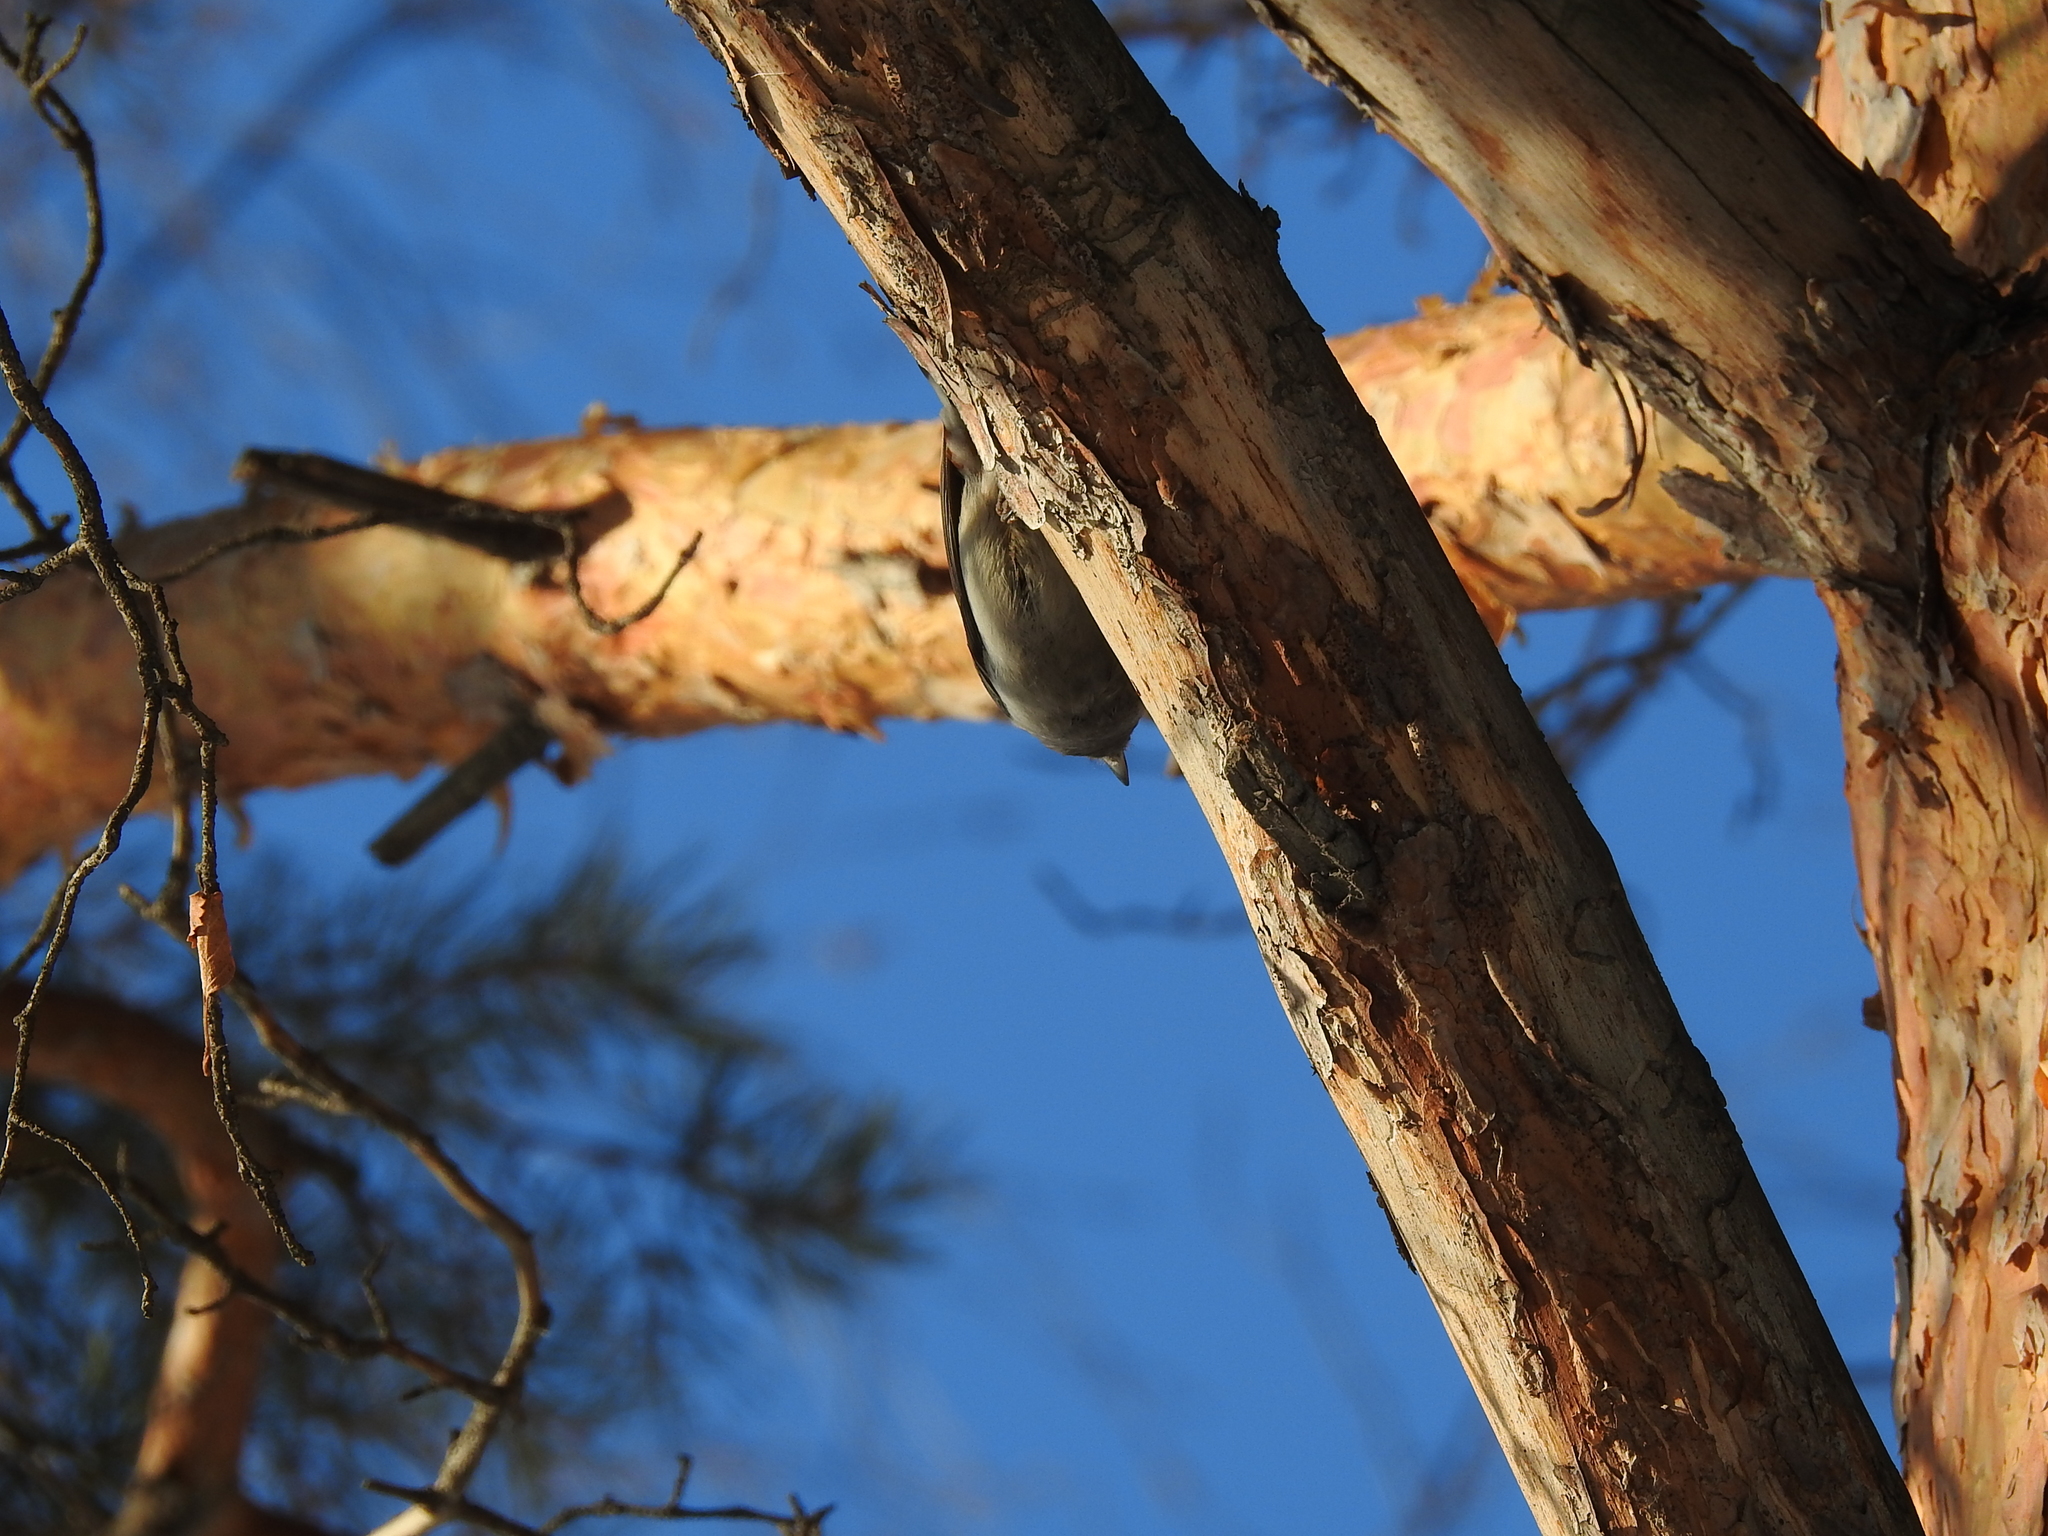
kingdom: Animalia
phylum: Chordata
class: Aves
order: Passeriformes
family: Sittidae
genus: Sitta
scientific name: Sitta europaea
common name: Eurasian nuthatch
